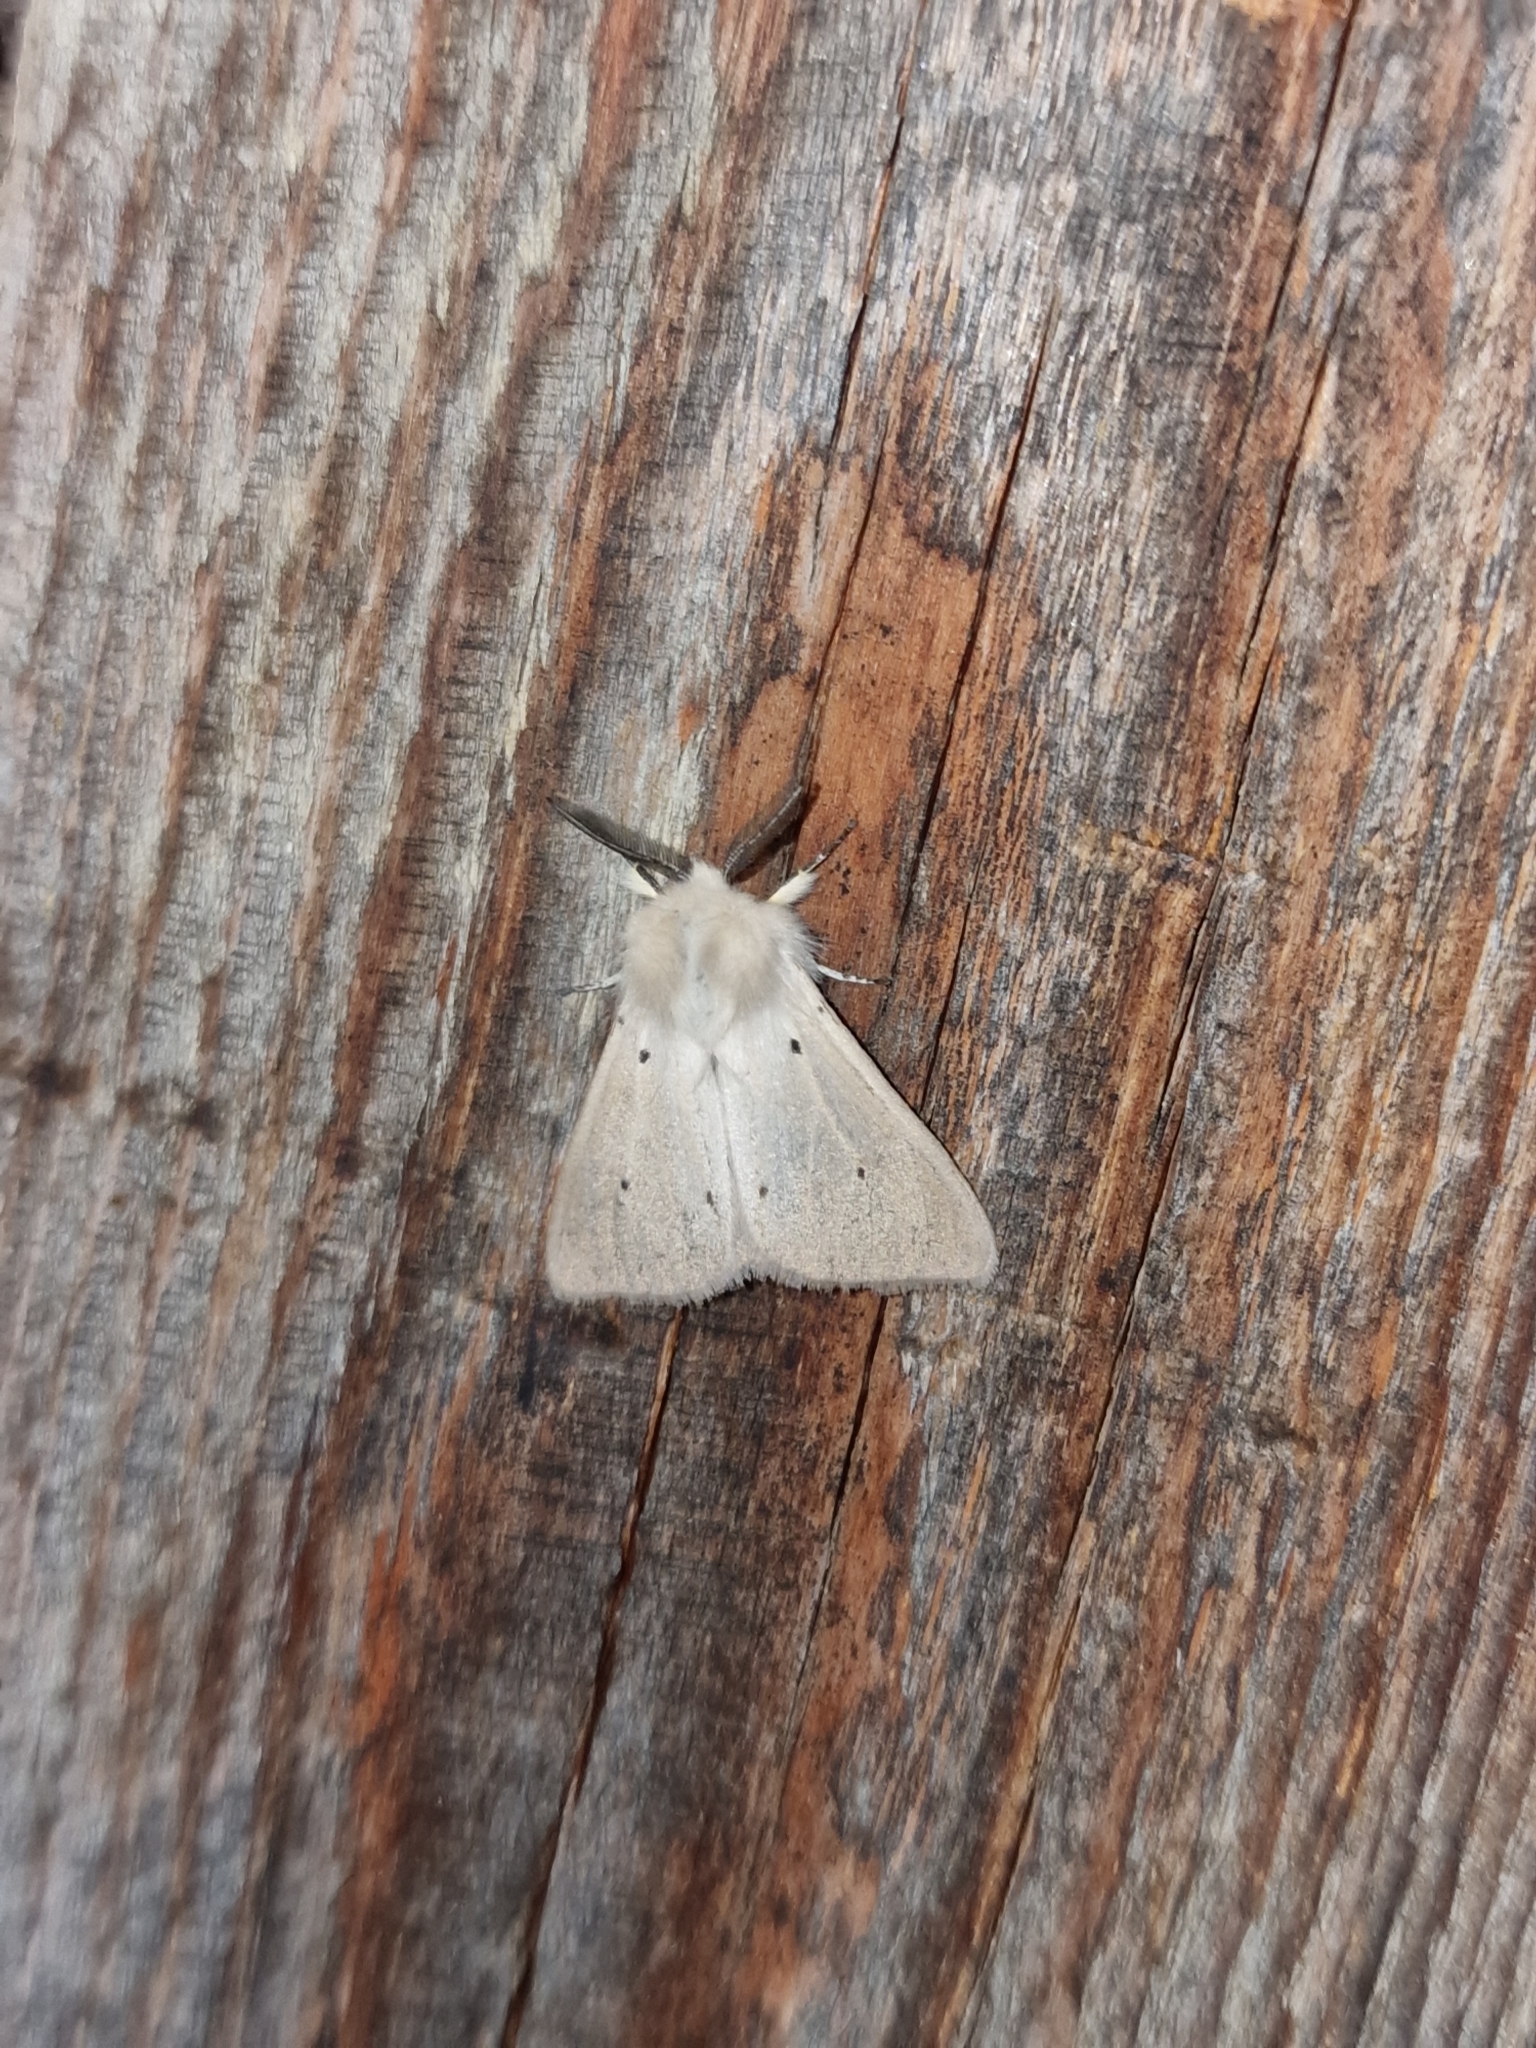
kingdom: Animalia
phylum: Arthropoda
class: Insecta
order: Lepidoptera
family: Erebidae
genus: Diaphora
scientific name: Diaphora mendica
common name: Muslin moth
